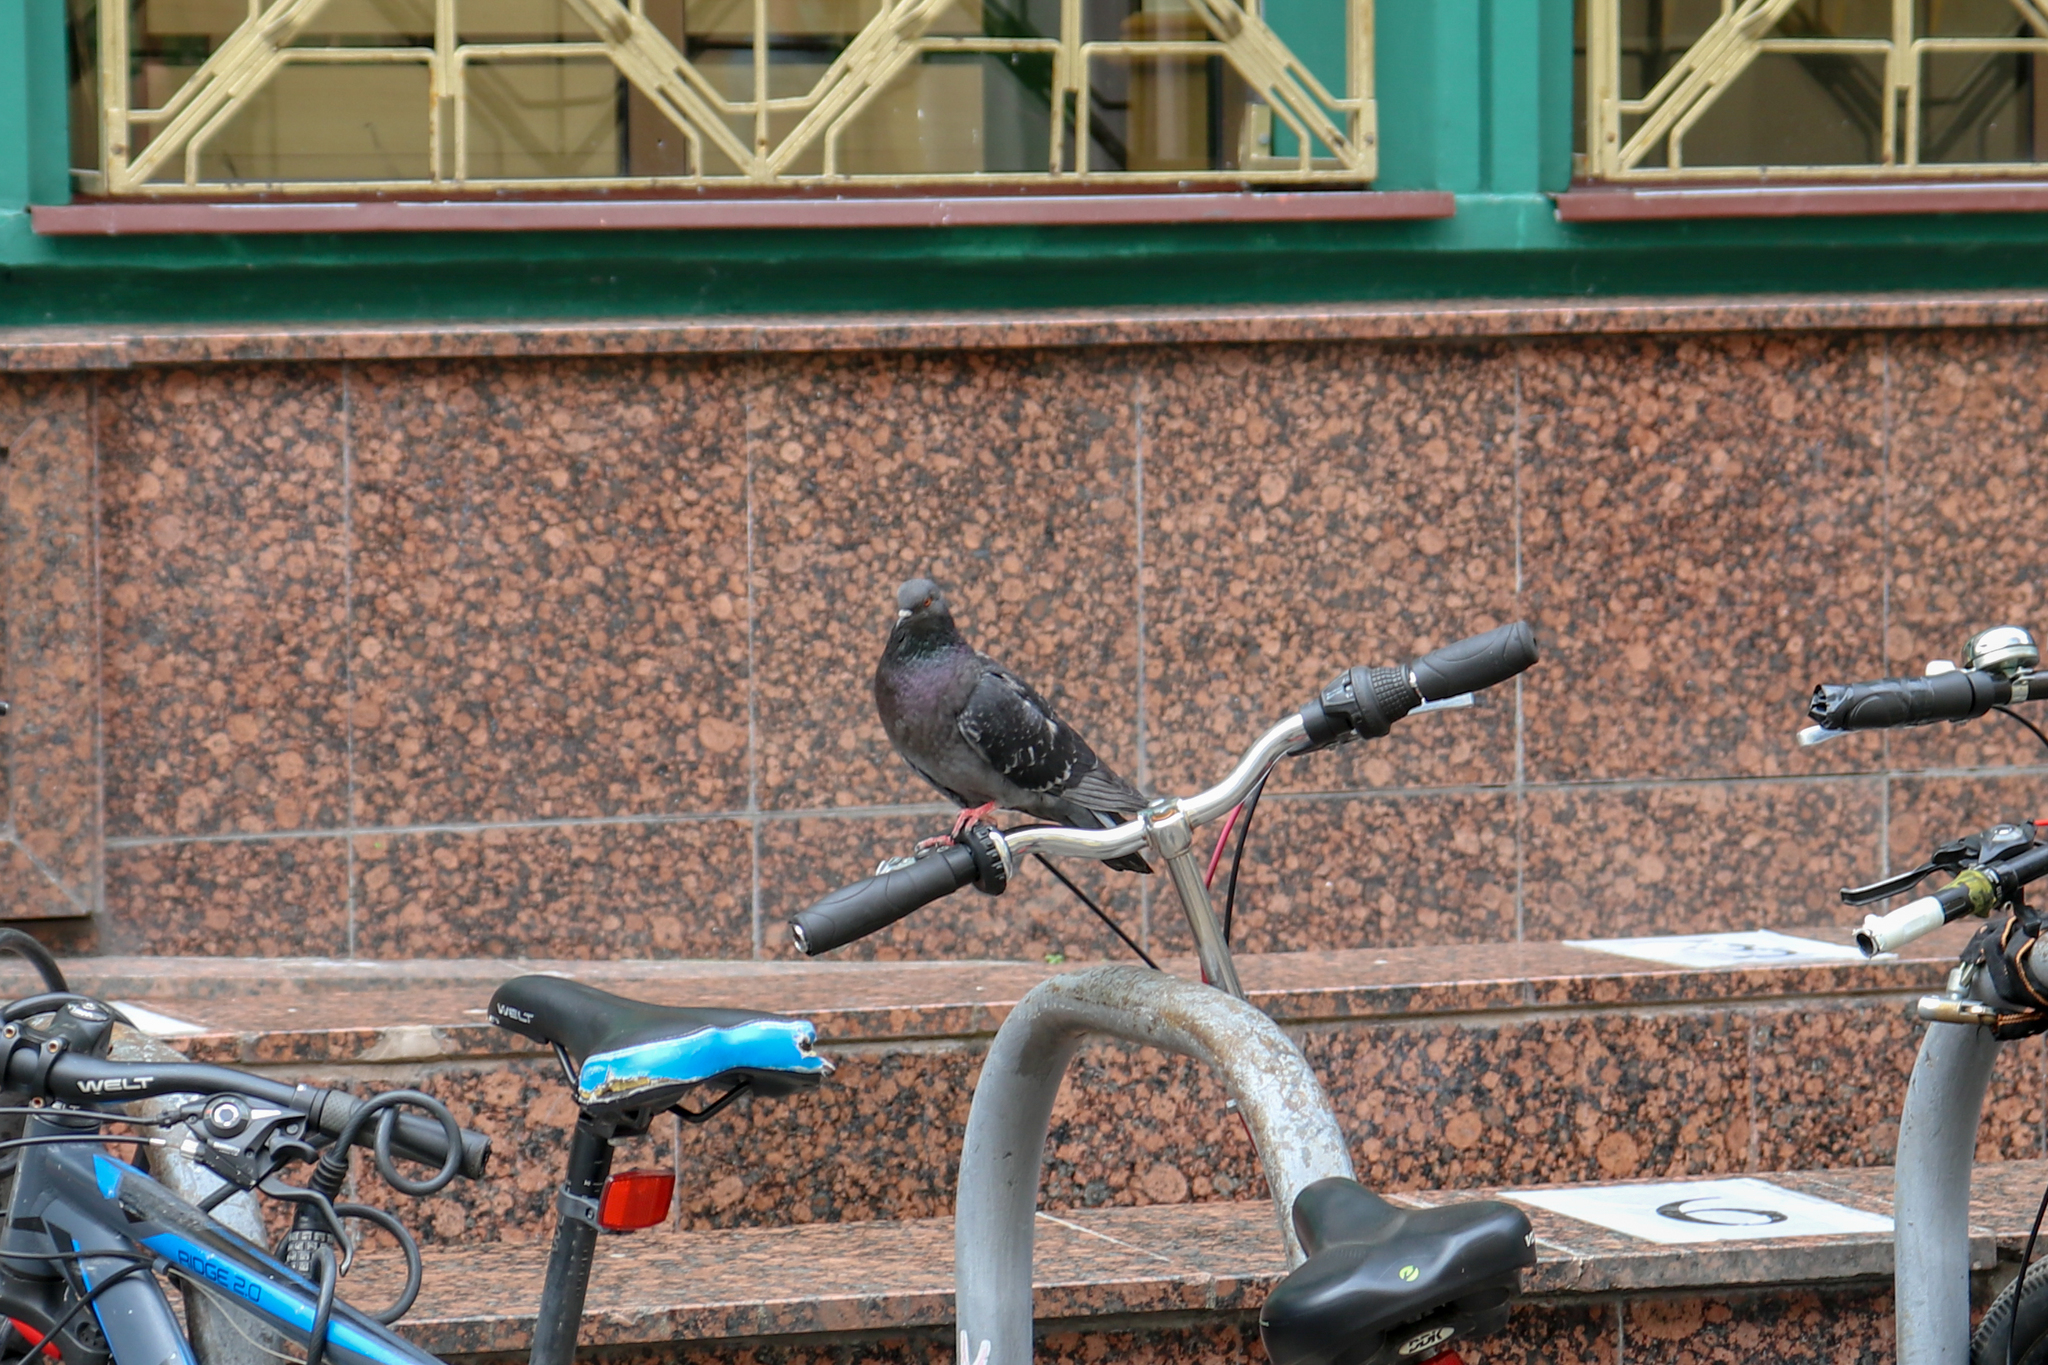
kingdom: Animalia
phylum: Chordata
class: Aves
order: Columbiformes
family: Columbidae
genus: Columba
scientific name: Columba livia
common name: Rock pigeon
